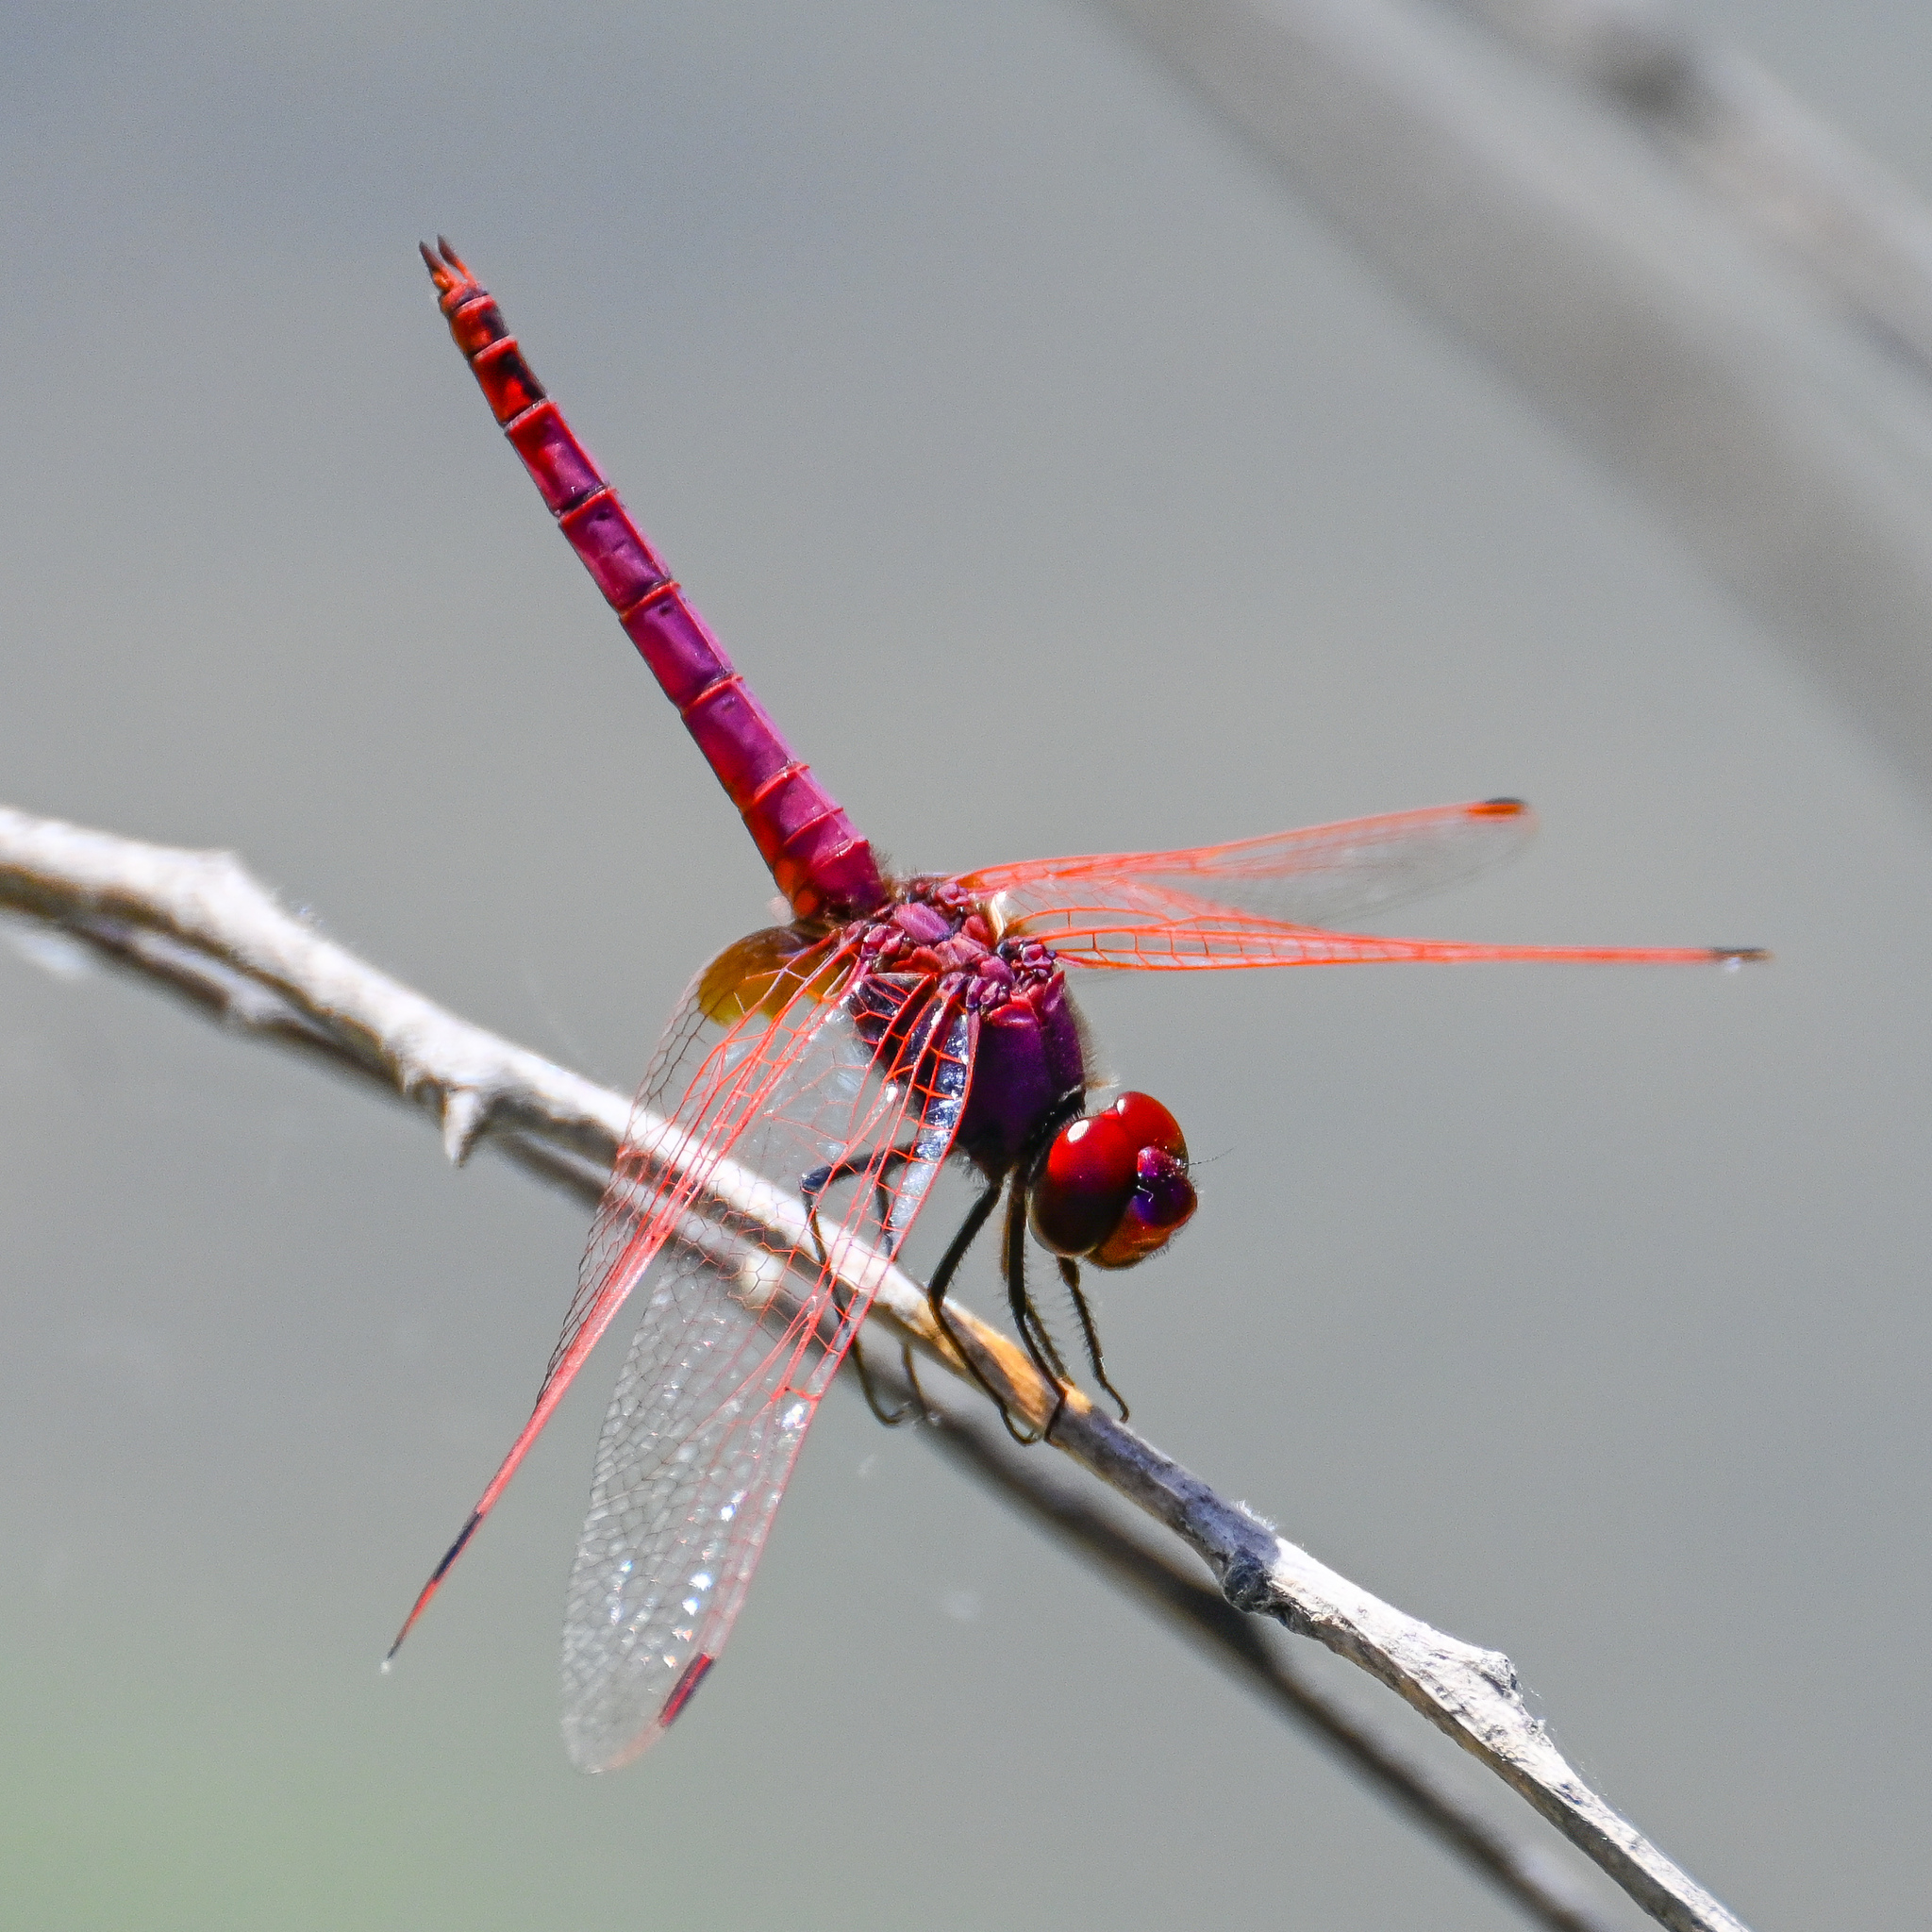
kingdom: Animalia
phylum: Arthropoda
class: Insecta
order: Odonata
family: Libellulidae
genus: Trithemis
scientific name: Trithemis annulata
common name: Violet dropwing
